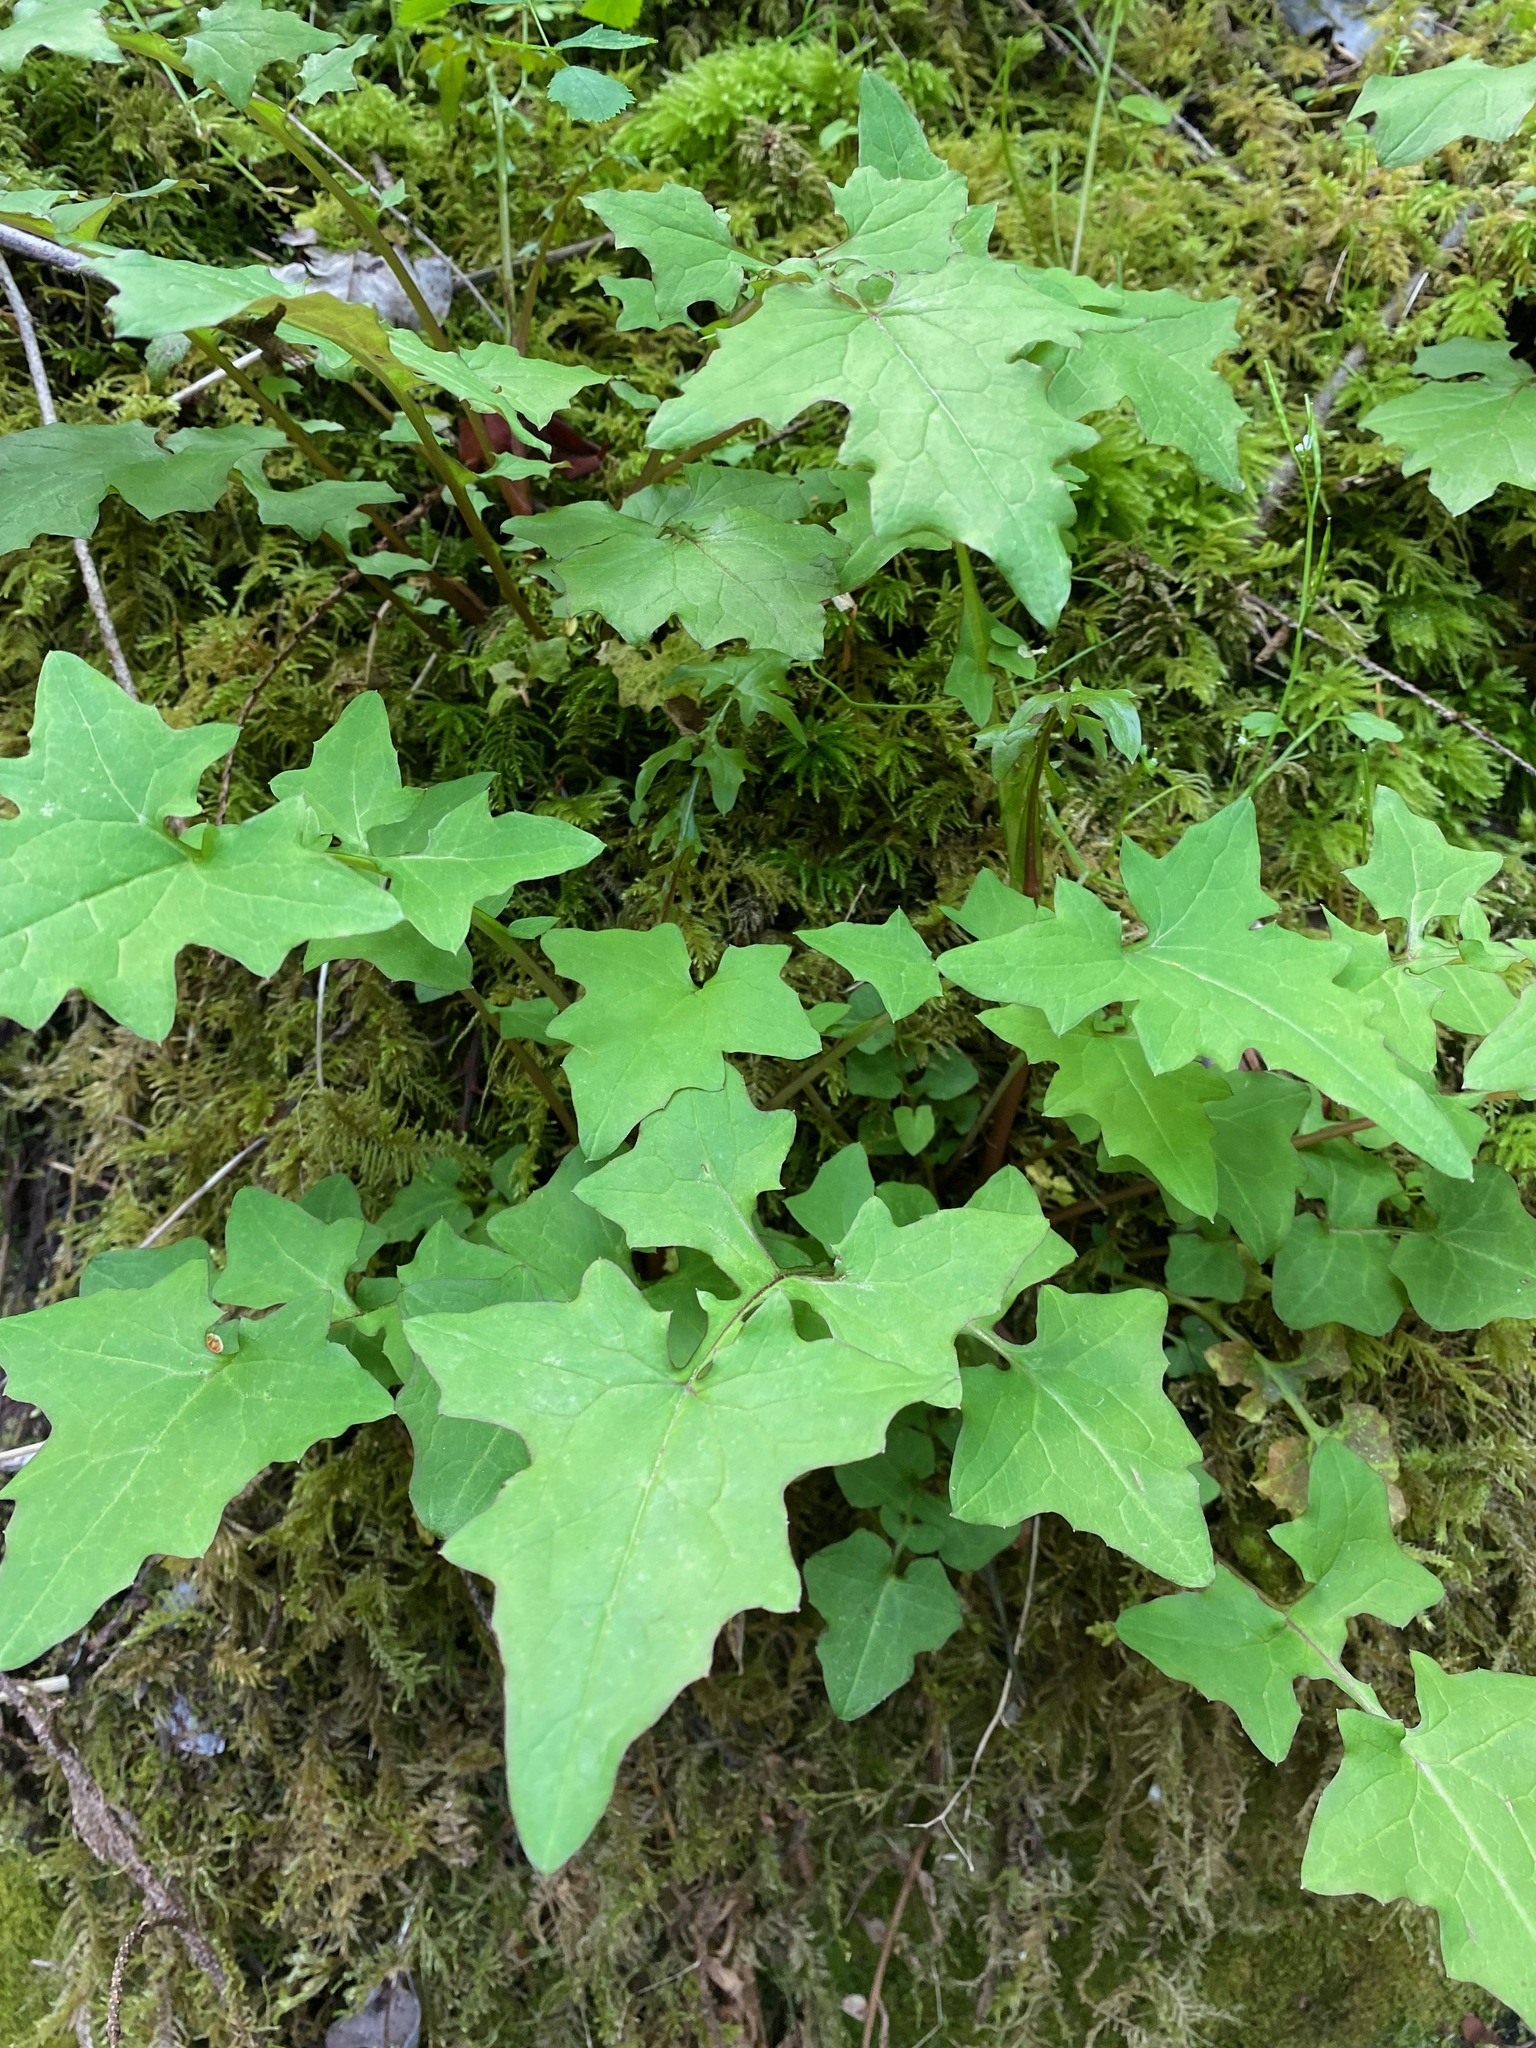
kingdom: Plantae
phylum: Tracheophyta
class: Magnoliopsida
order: Asterales
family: Asteraceae
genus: Mycelis
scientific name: Mycelis muralis
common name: Wall lettuce
